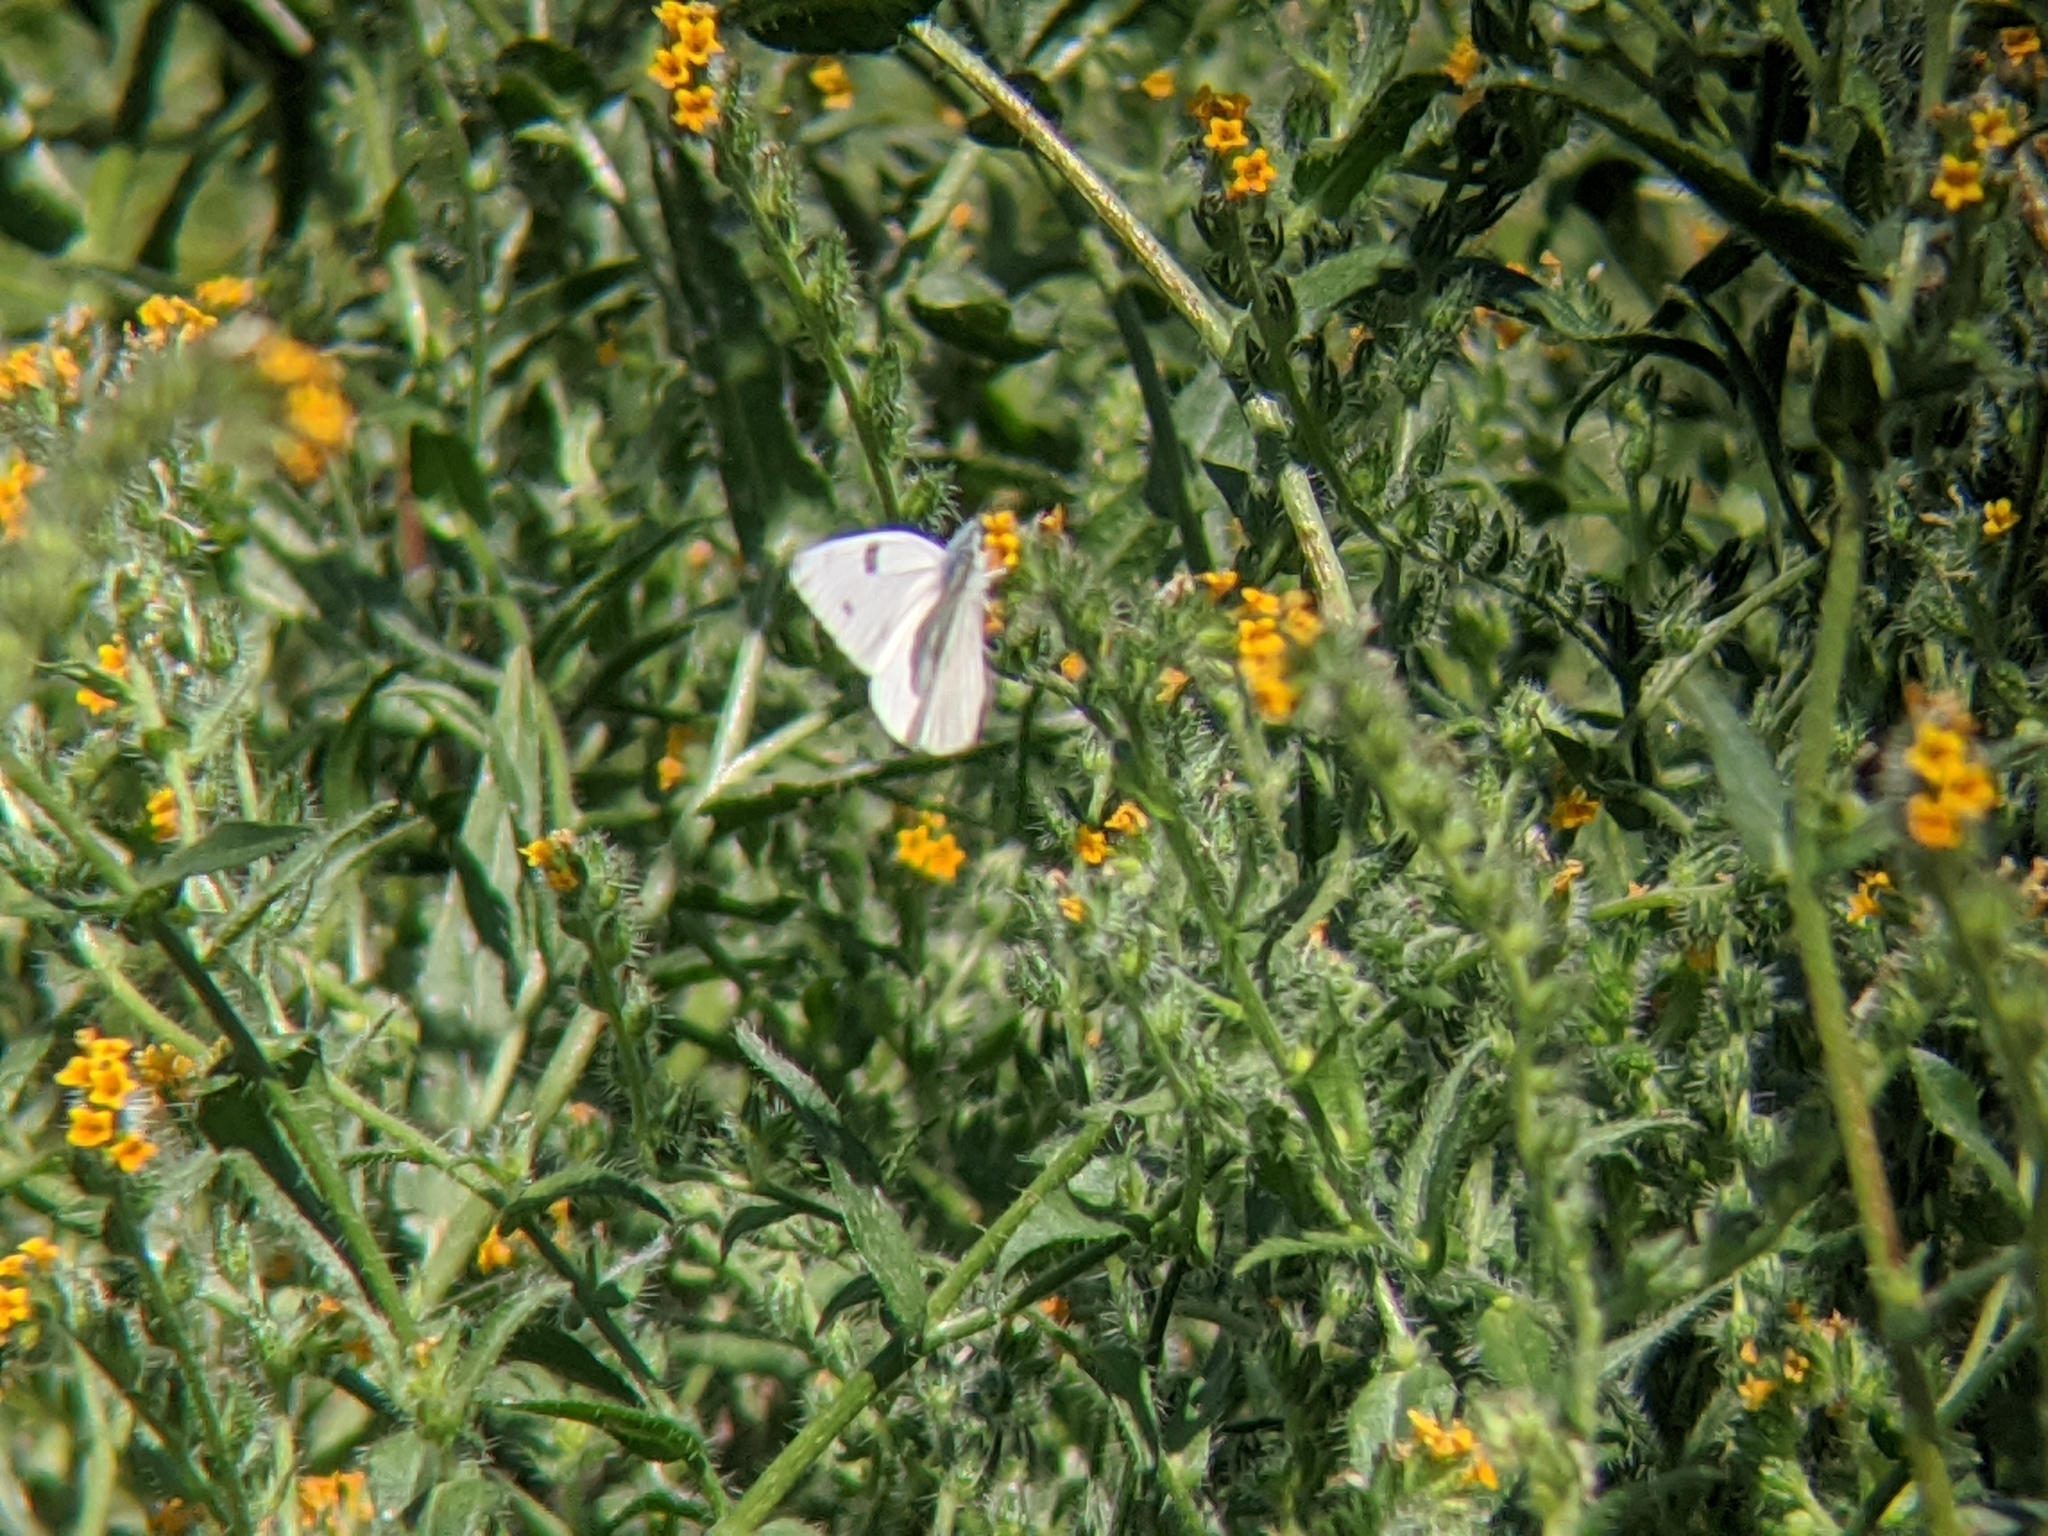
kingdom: Animalia
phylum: Arthropoda
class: Insecta
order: Lepidoptera
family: Pieridae
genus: Pontia
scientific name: Pontia protodice
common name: Checkered white
